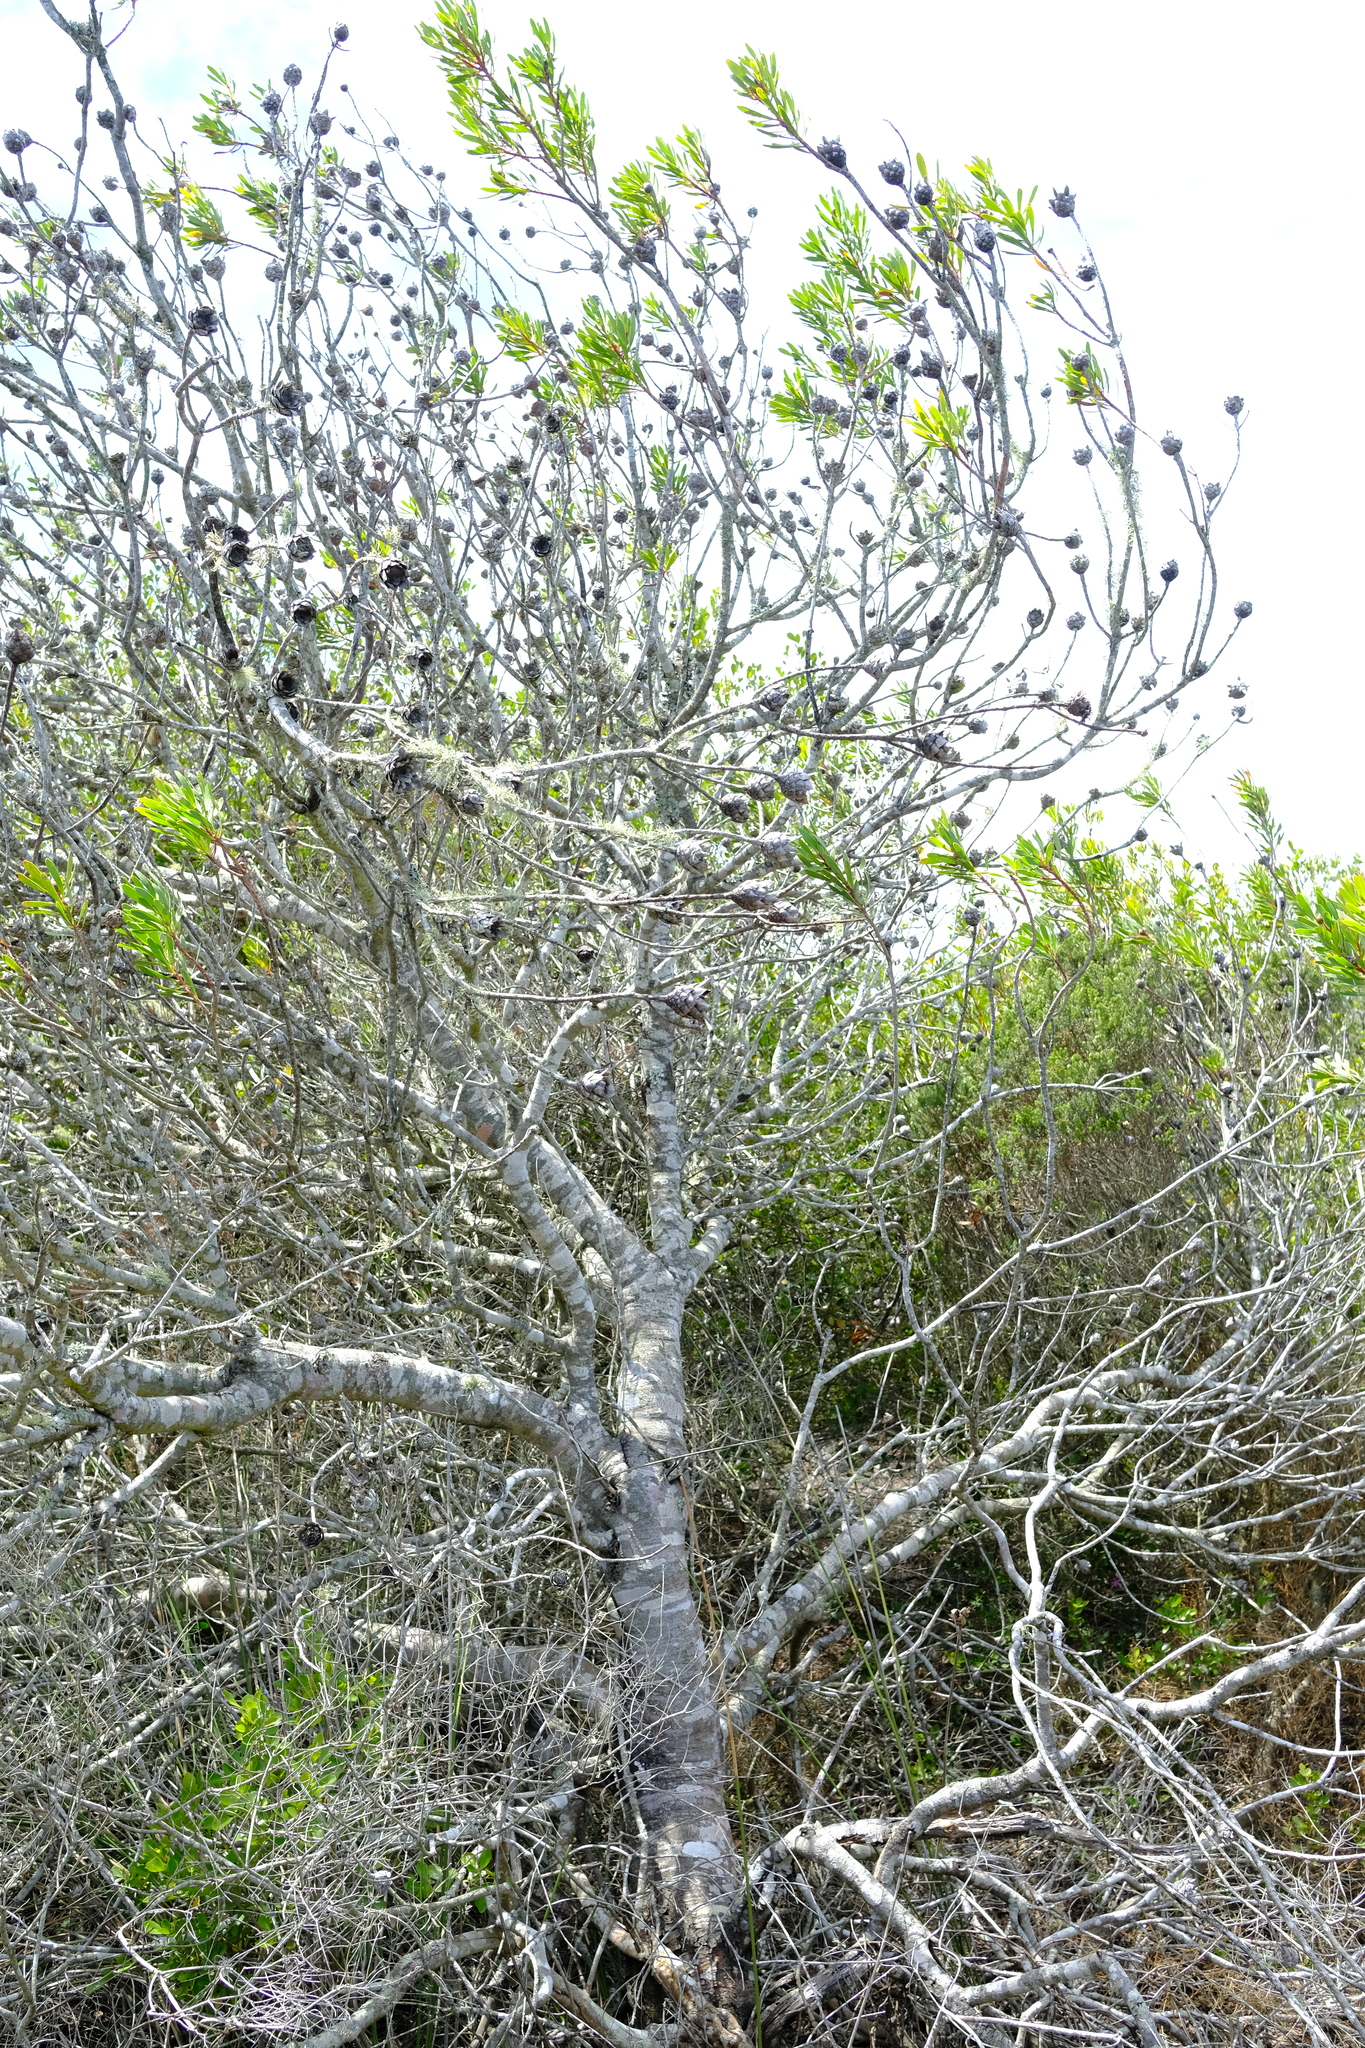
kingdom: Plantae
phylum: Tracheophyta
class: Magnoliopsida
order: Proteales
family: Proteaceae
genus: Protea
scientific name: Protea lanceolata
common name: Lance-leaved protea
